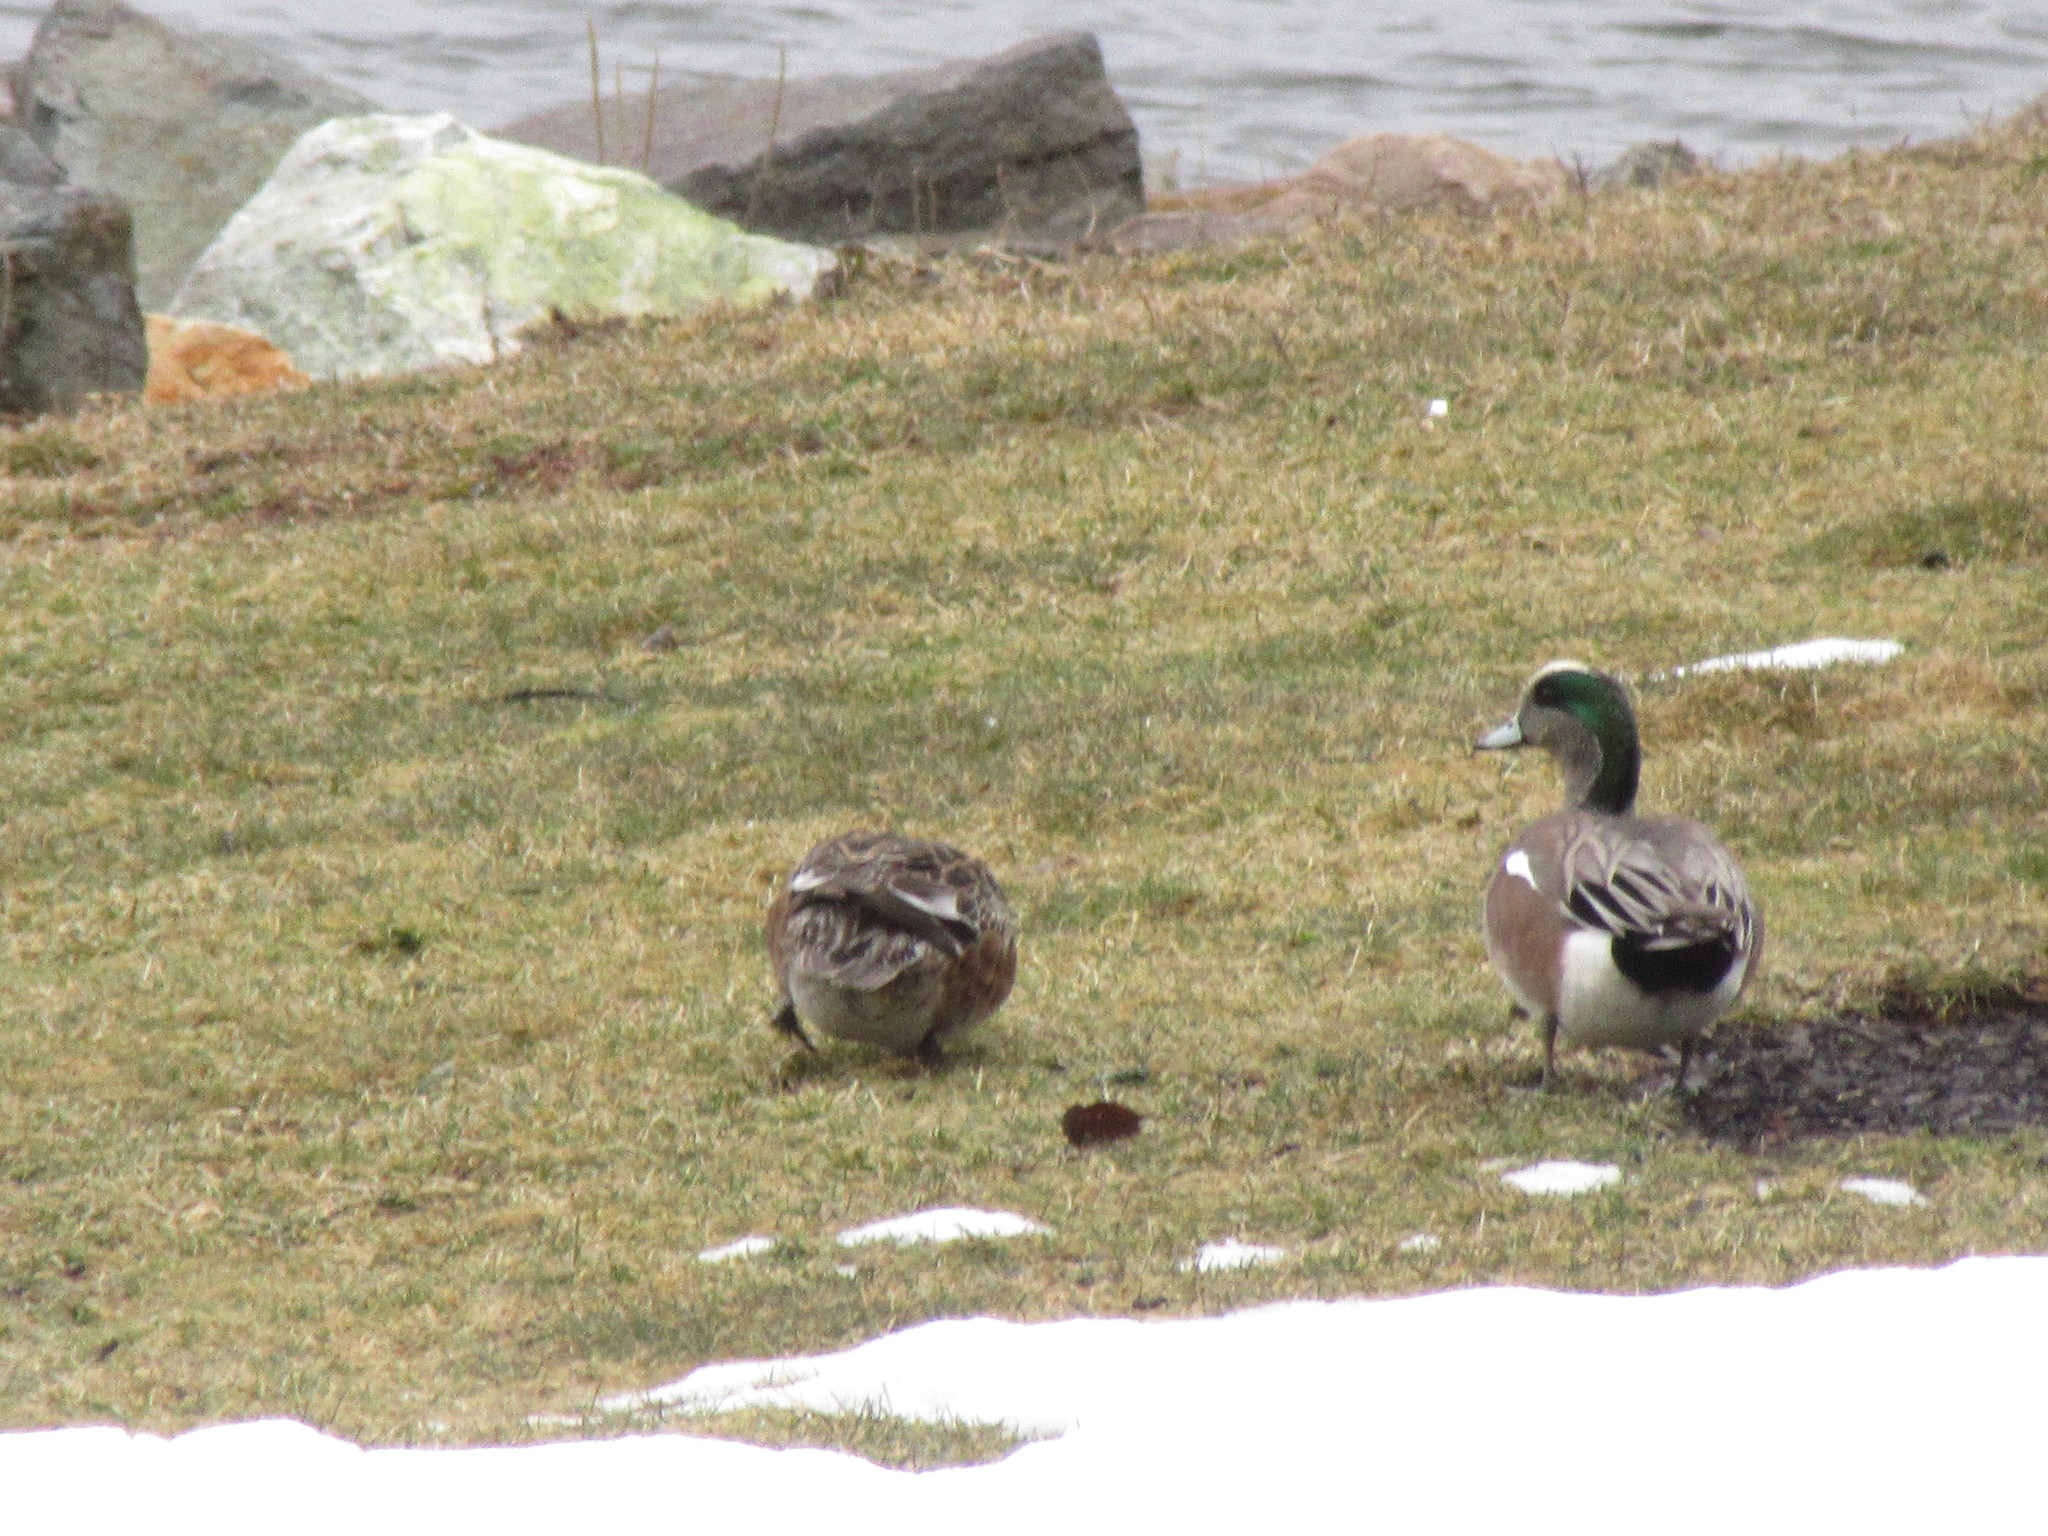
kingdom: Animalia
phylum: Chordata
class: Aves
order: Anseriformes
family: Anatidae
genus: Mareca
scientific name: Mareca americana
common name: American wigeon
